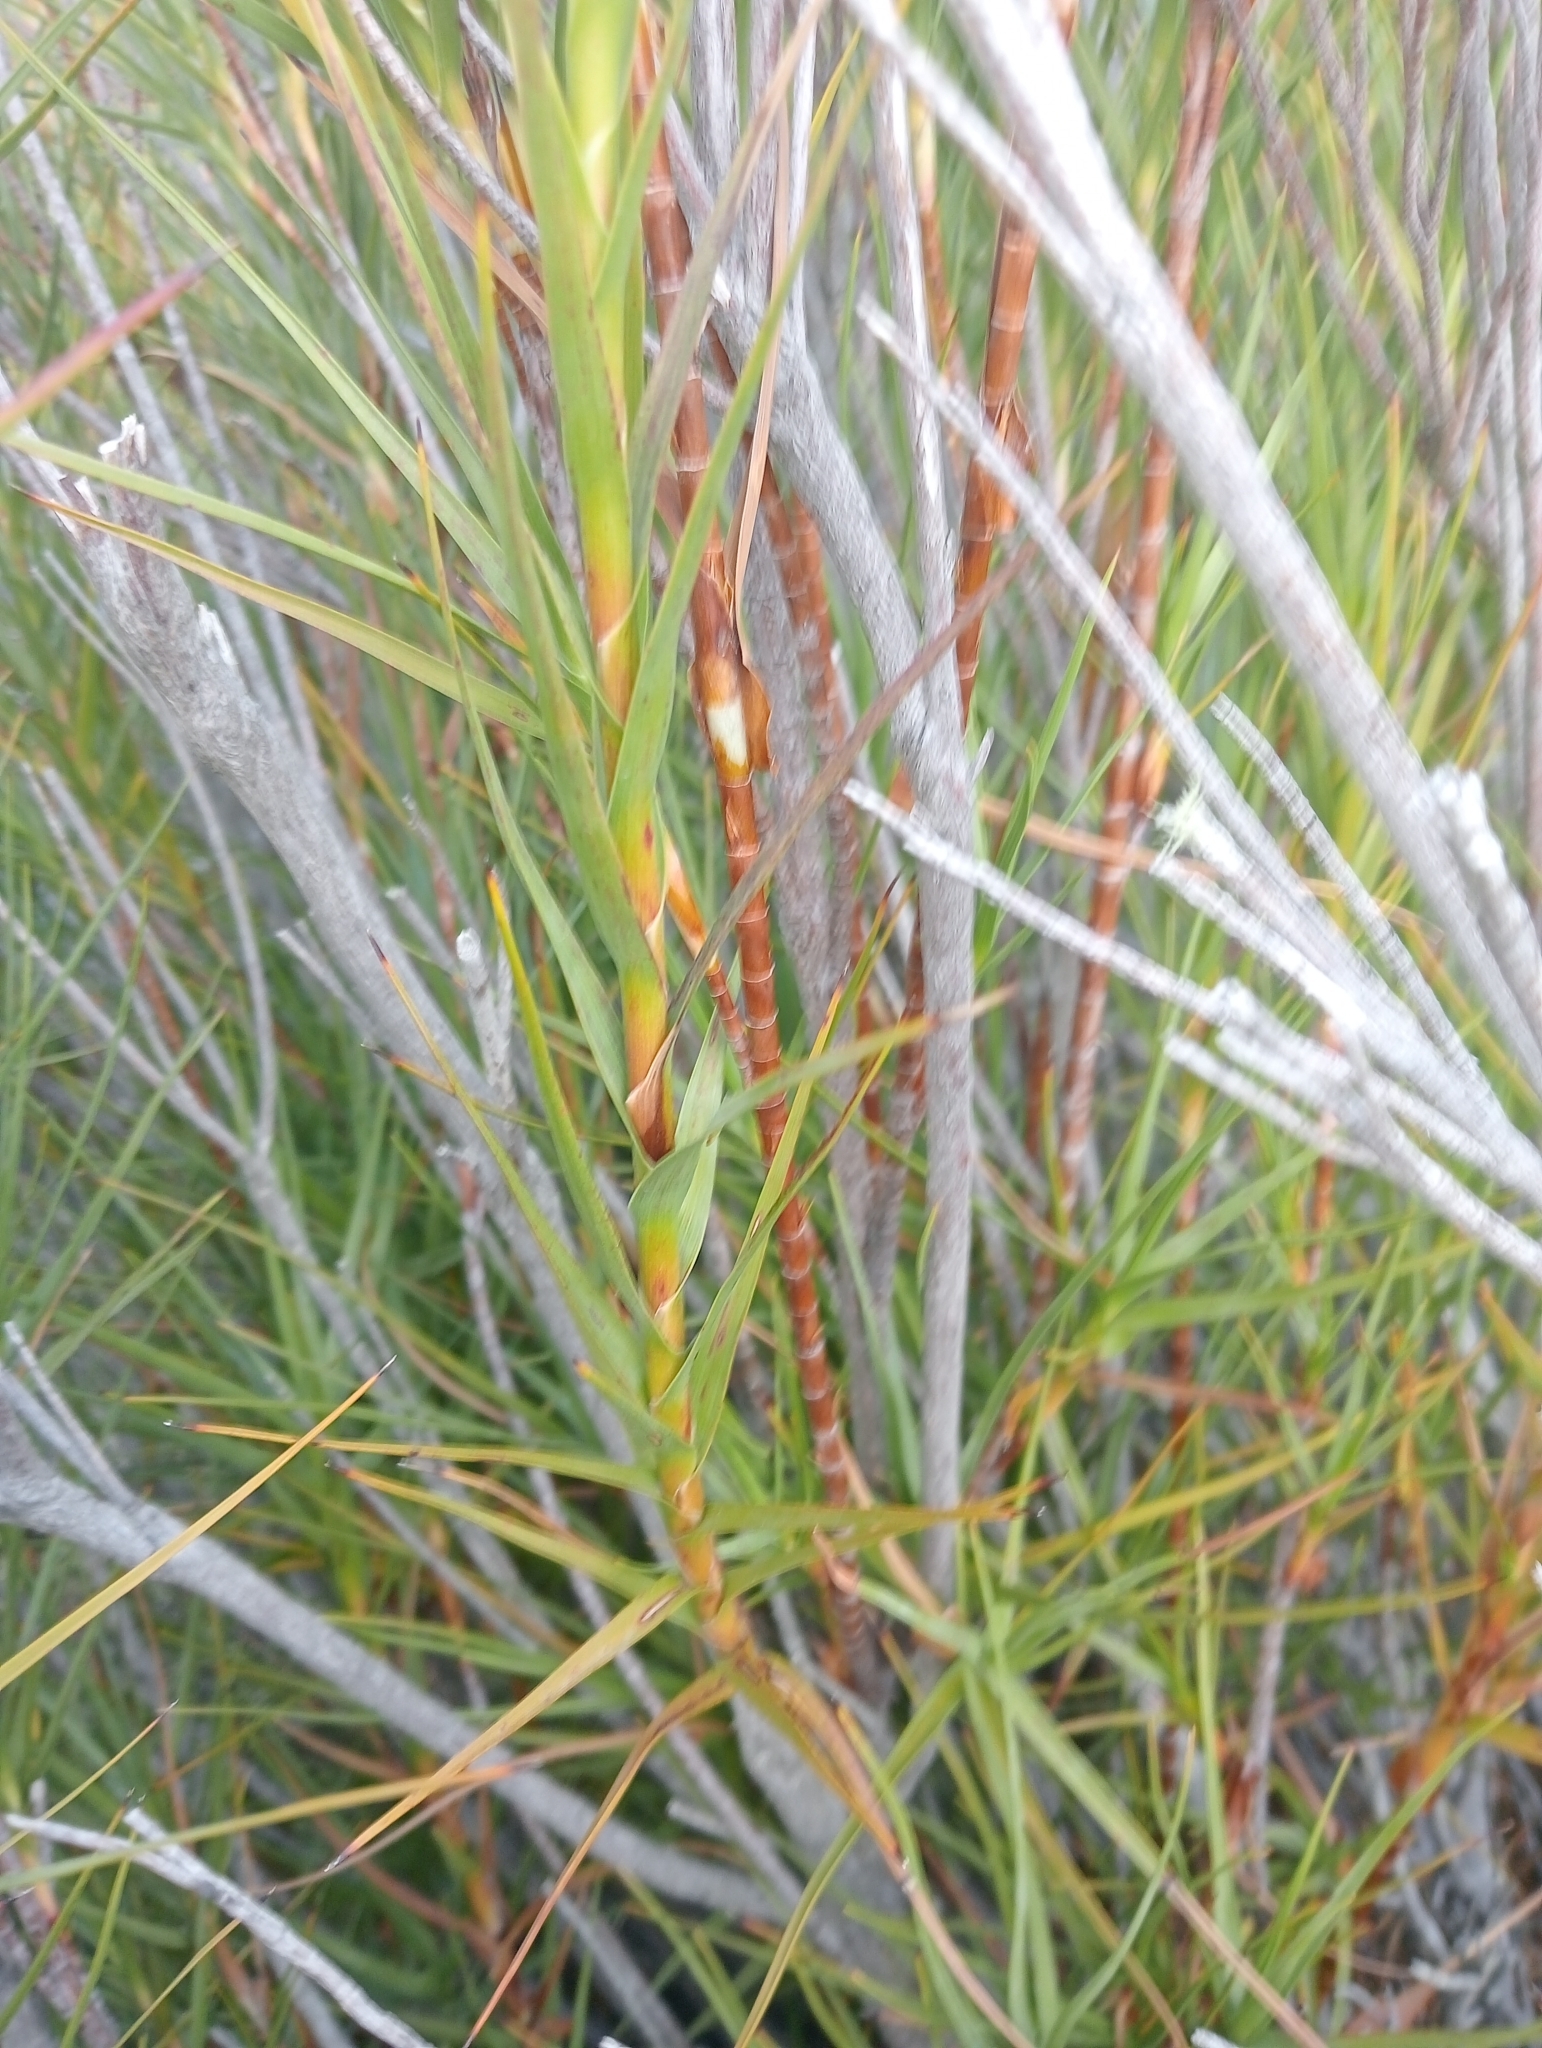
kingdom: Plantae
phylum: Tracheophyta
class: Magnoliopsida
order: Ericales
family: Ericaceae
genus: Dracophyllum
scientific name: Dracophyllum longifolium
